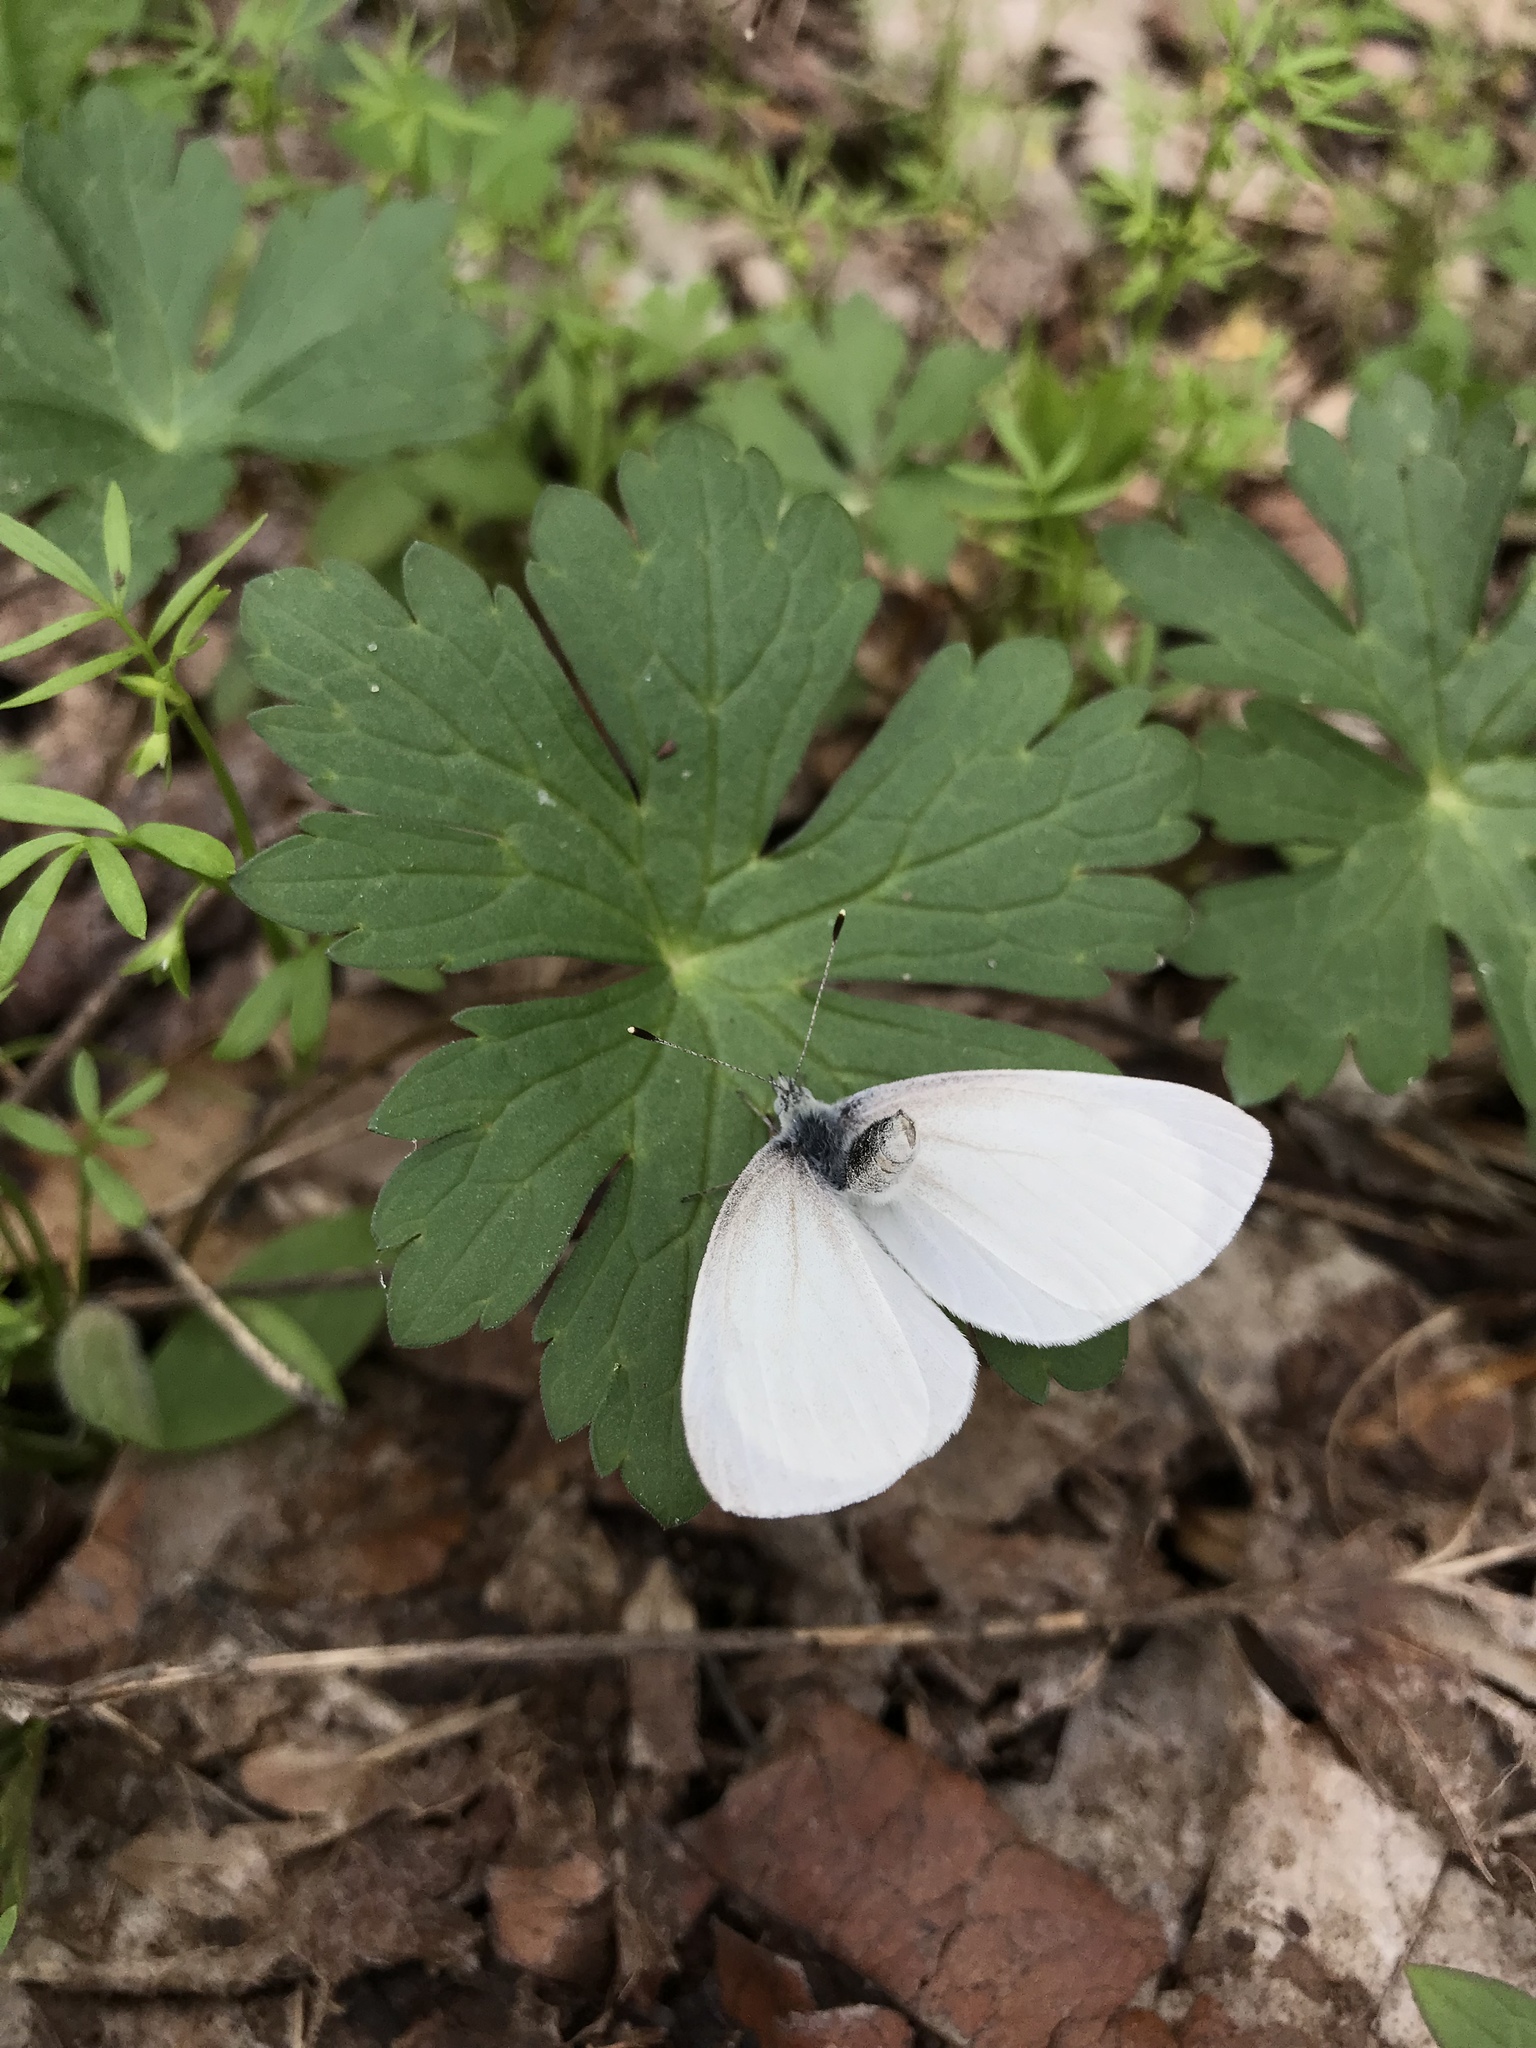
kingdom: Animalia
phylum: Arthropoda
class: Insecta
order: Lepidoptera
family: Pieridae
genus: Pieris
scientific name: Pieris virginiensis
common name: West virginia white
